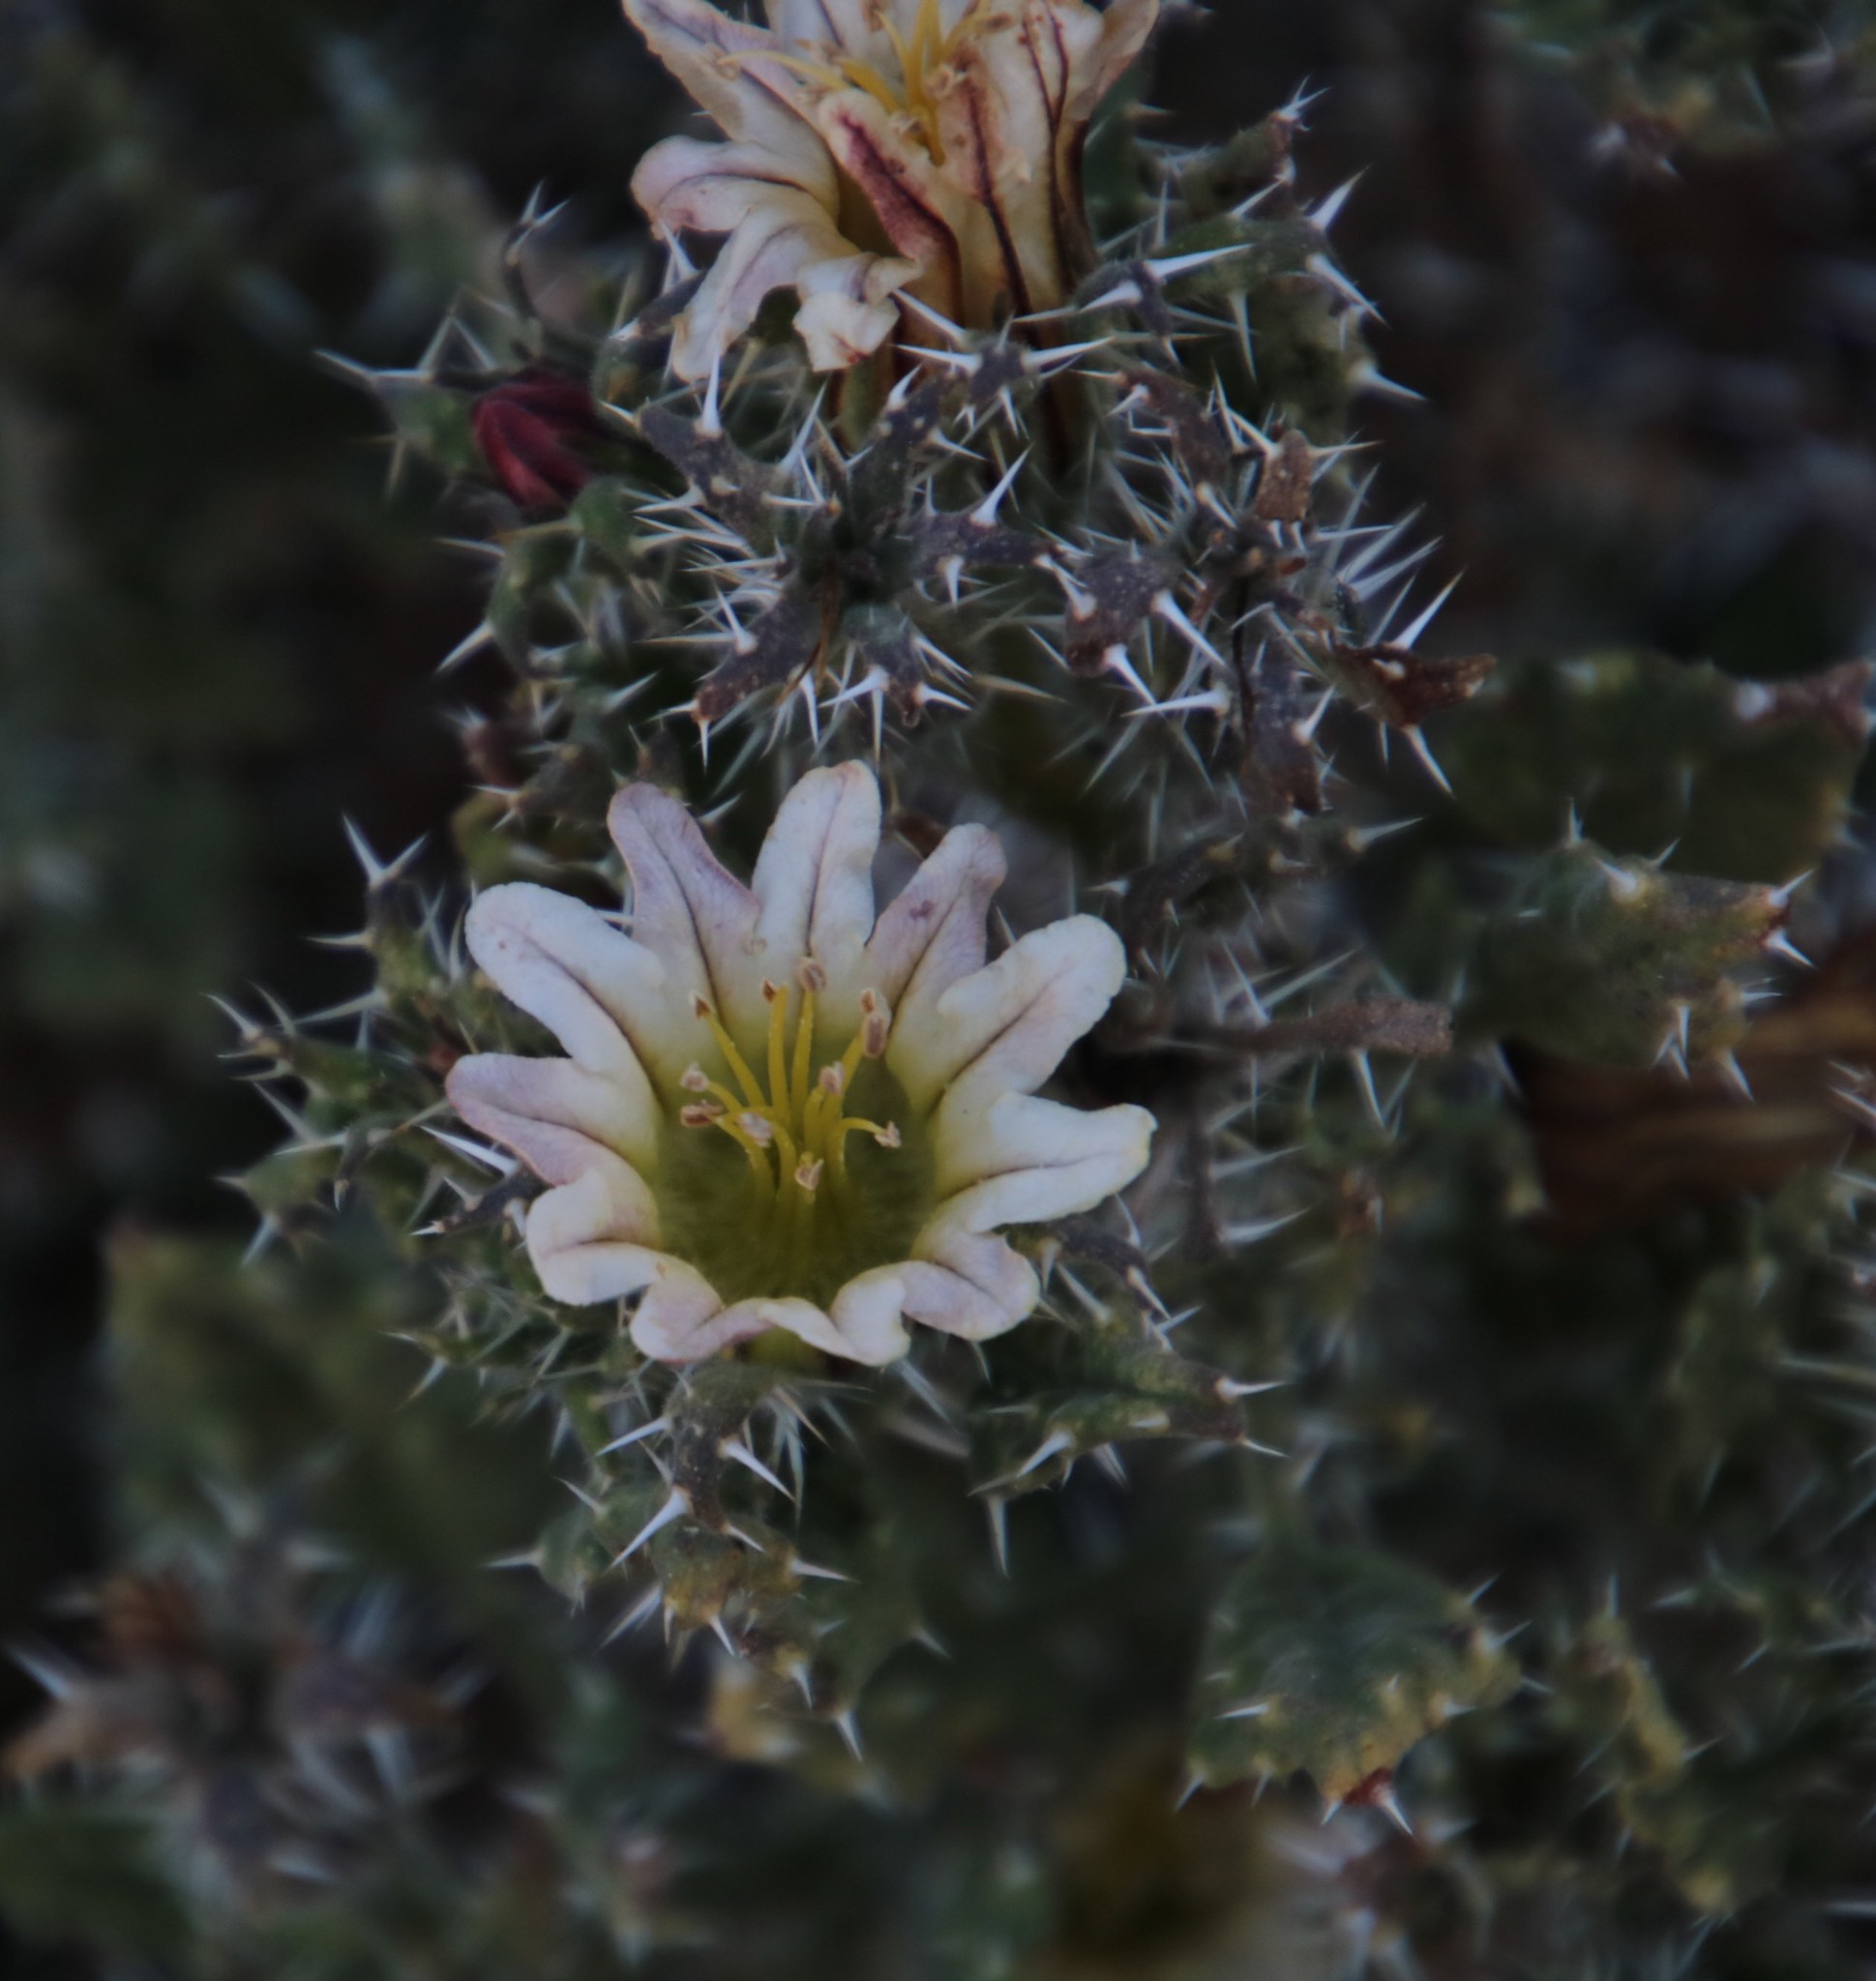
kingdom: Plantae
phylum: Tracheophyta
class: Magnoliopsida
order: Boraginales
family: Boraginaceae
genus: Codon
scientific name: Codon royenii
